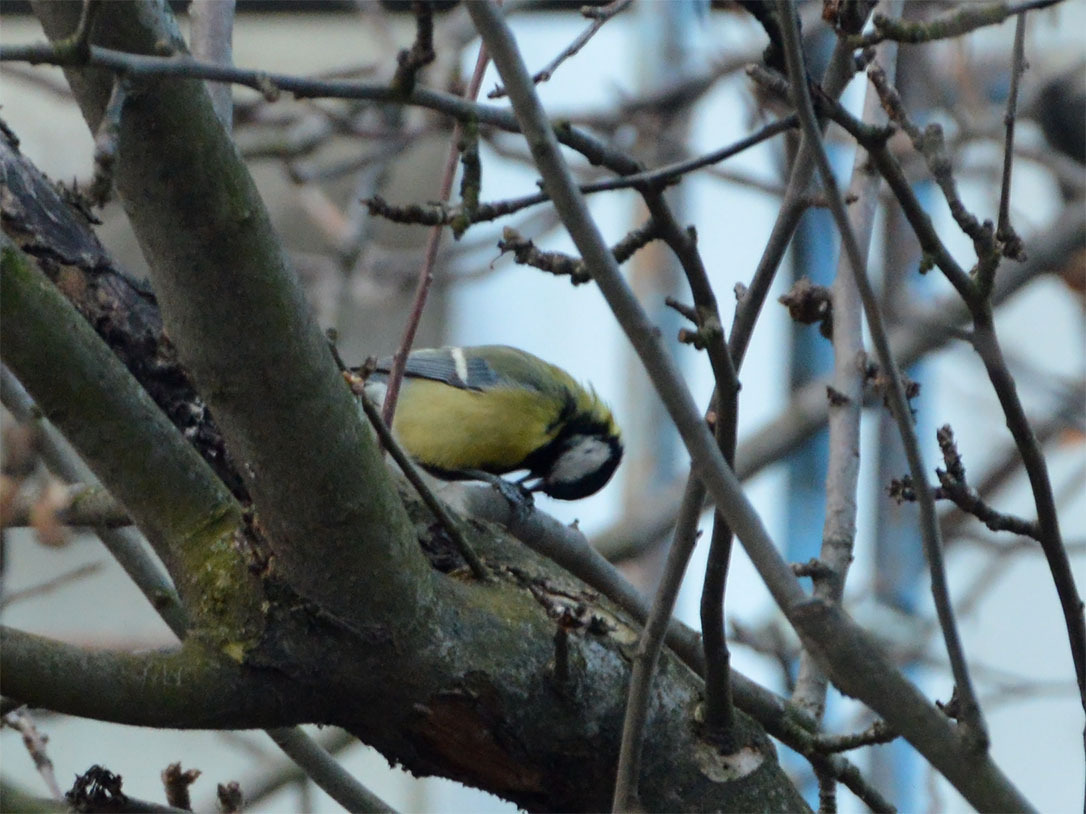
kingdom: Animalia
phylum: Chordata
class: Aves
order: Passeriformes
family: Paridae
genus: Parus
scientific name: Parus major
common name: Great tit
